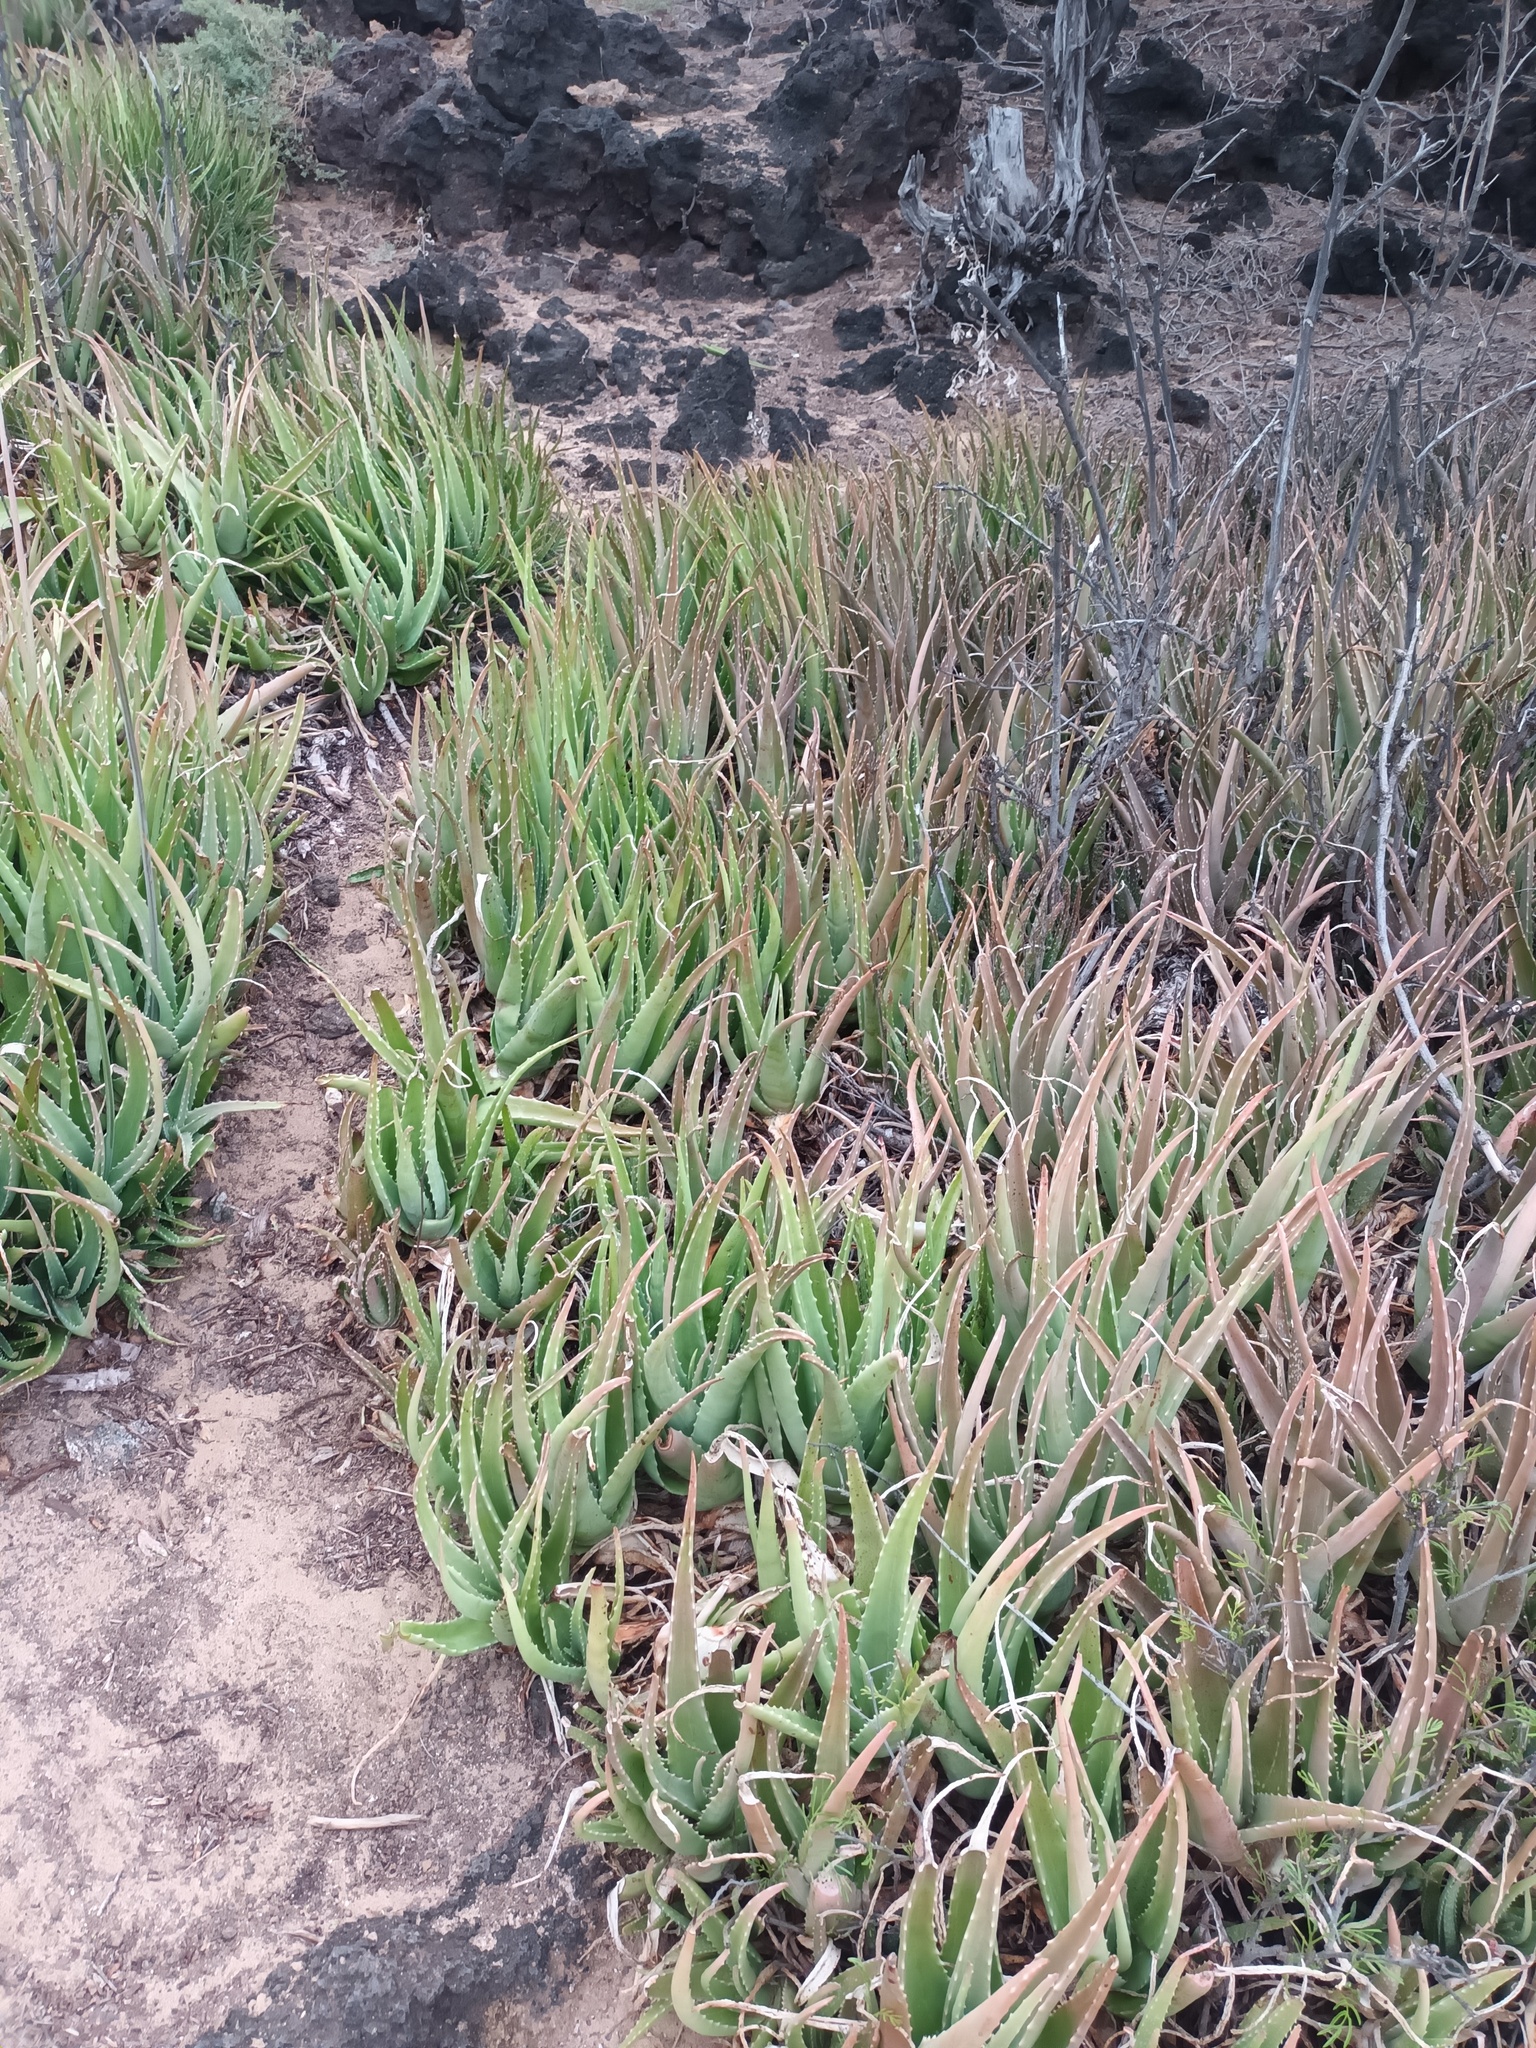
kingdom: Plantae
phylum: Tracheophyta
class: Liliopsida
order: Asparagales
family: Asphodelaceae
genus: Aloe
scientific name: Aloe vera
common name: Barbados aloe
